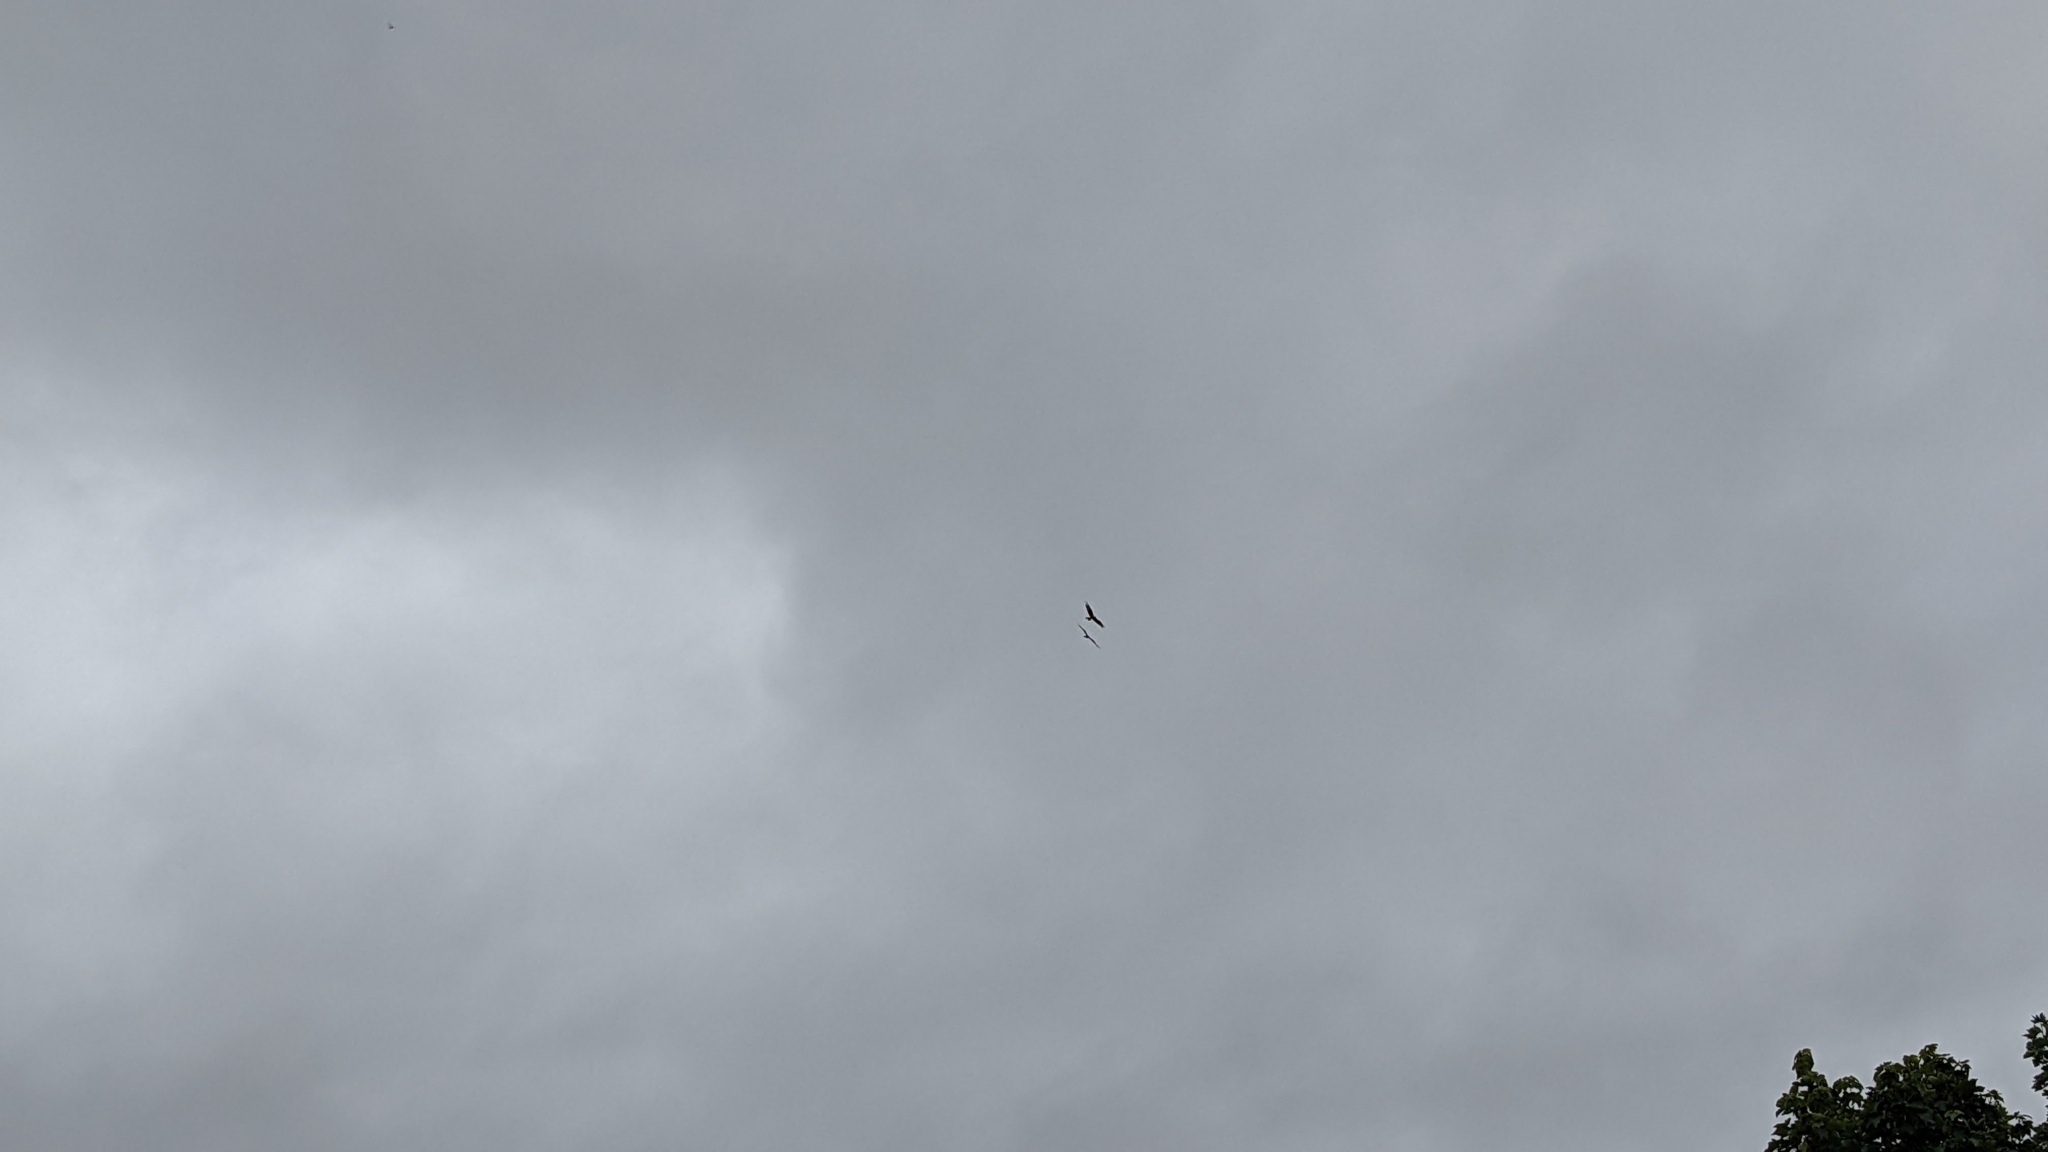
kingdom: Animalia
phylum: Chordata
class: Aves
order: Accipitriformes
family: Accipitridae
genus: Milvus
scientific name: Milvus milvus
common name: Red kite
